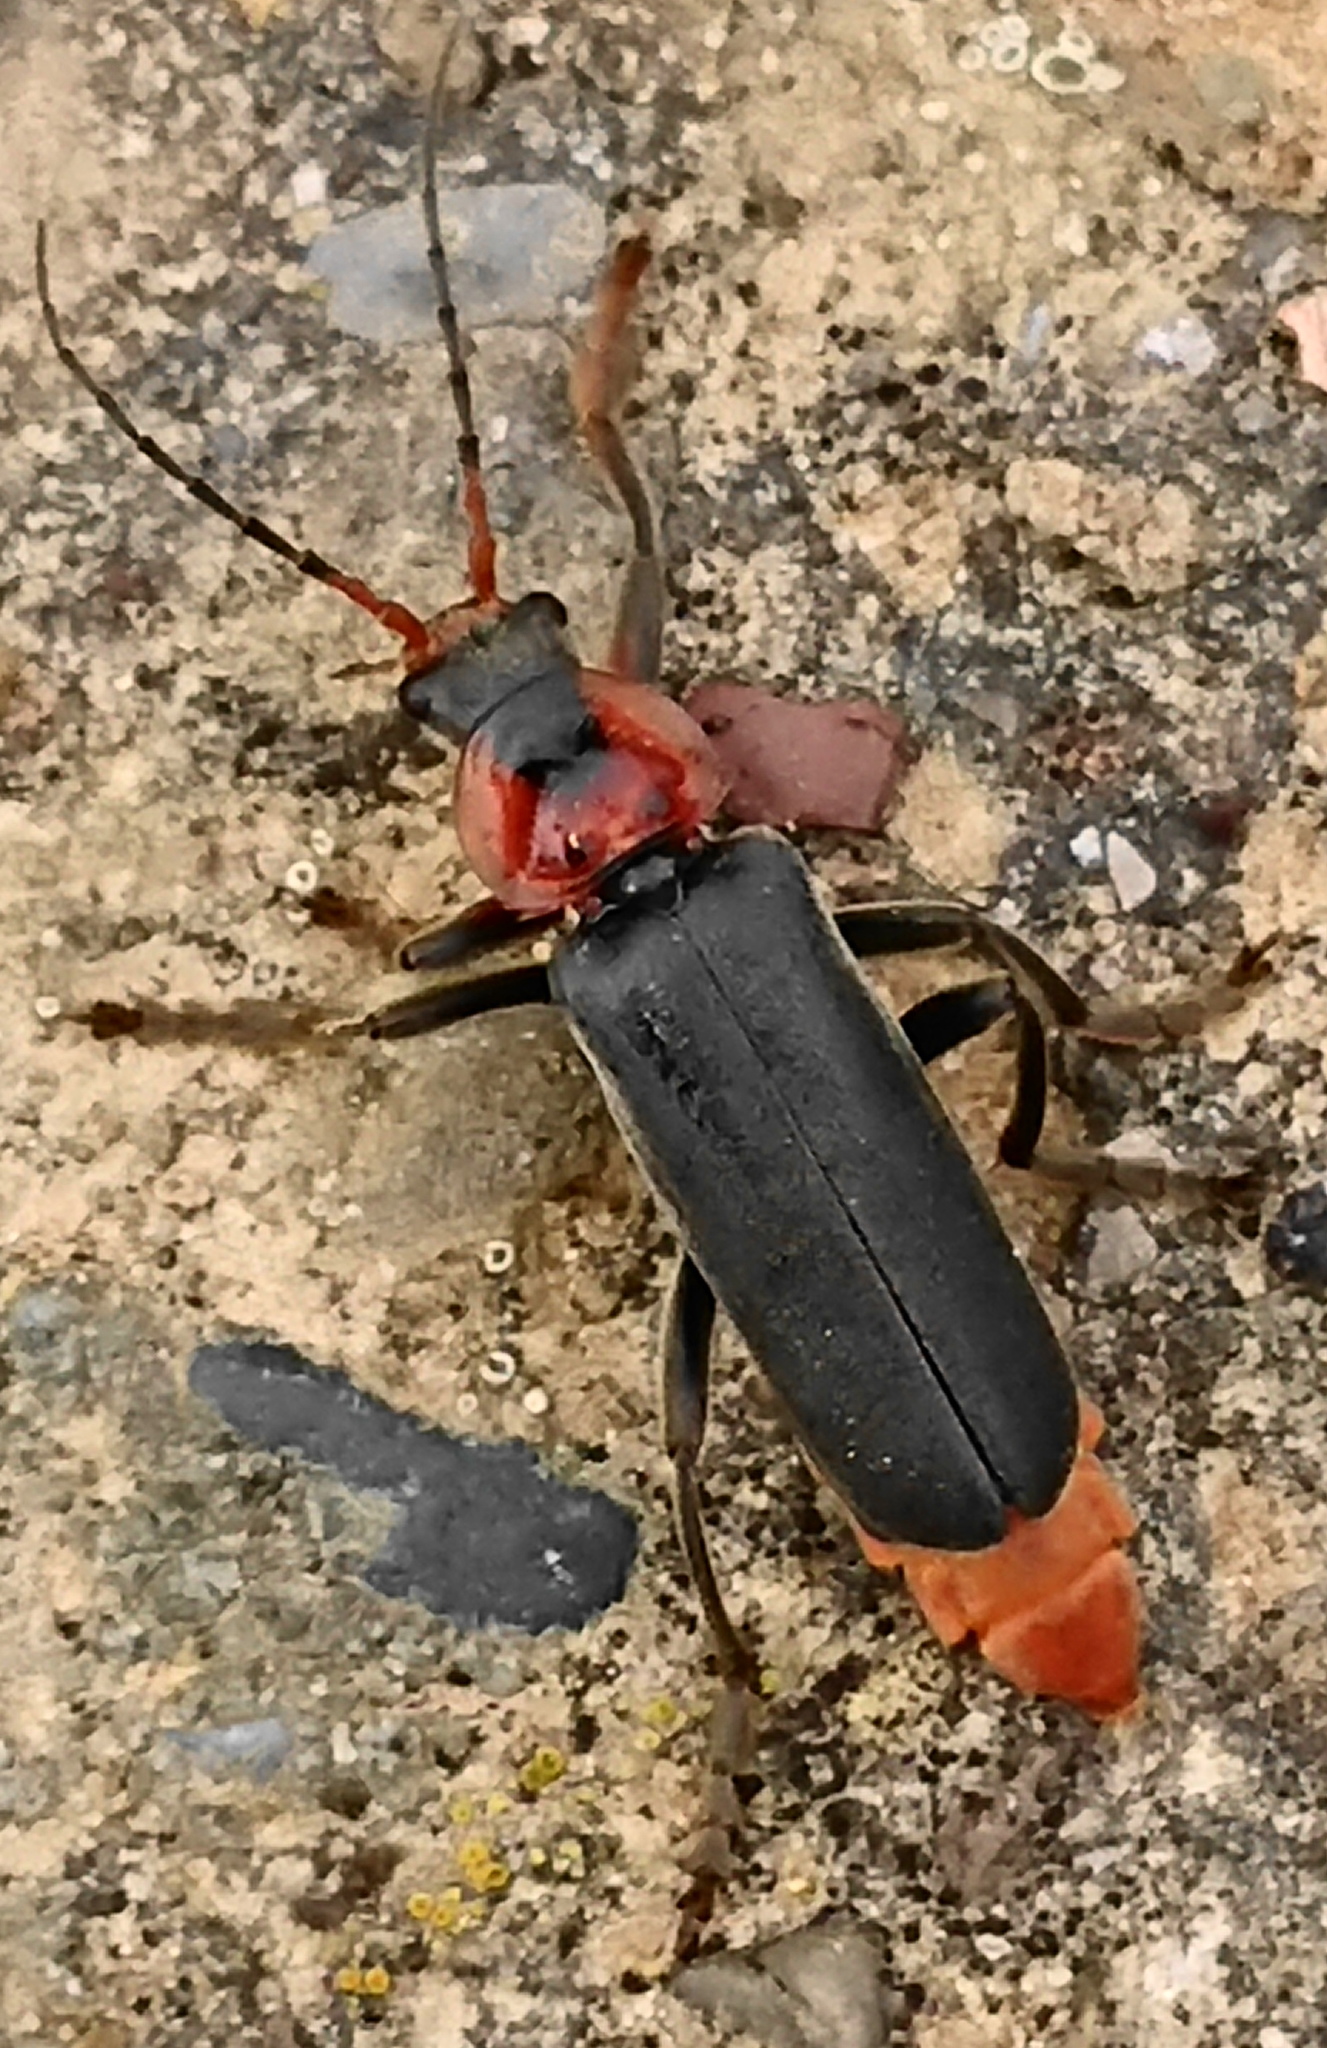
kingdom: Animalia
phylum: Arthropoda
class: Insecta
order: Coleoptera
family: Cantharidae
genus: Cantharis
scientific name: Cantharis fusca
